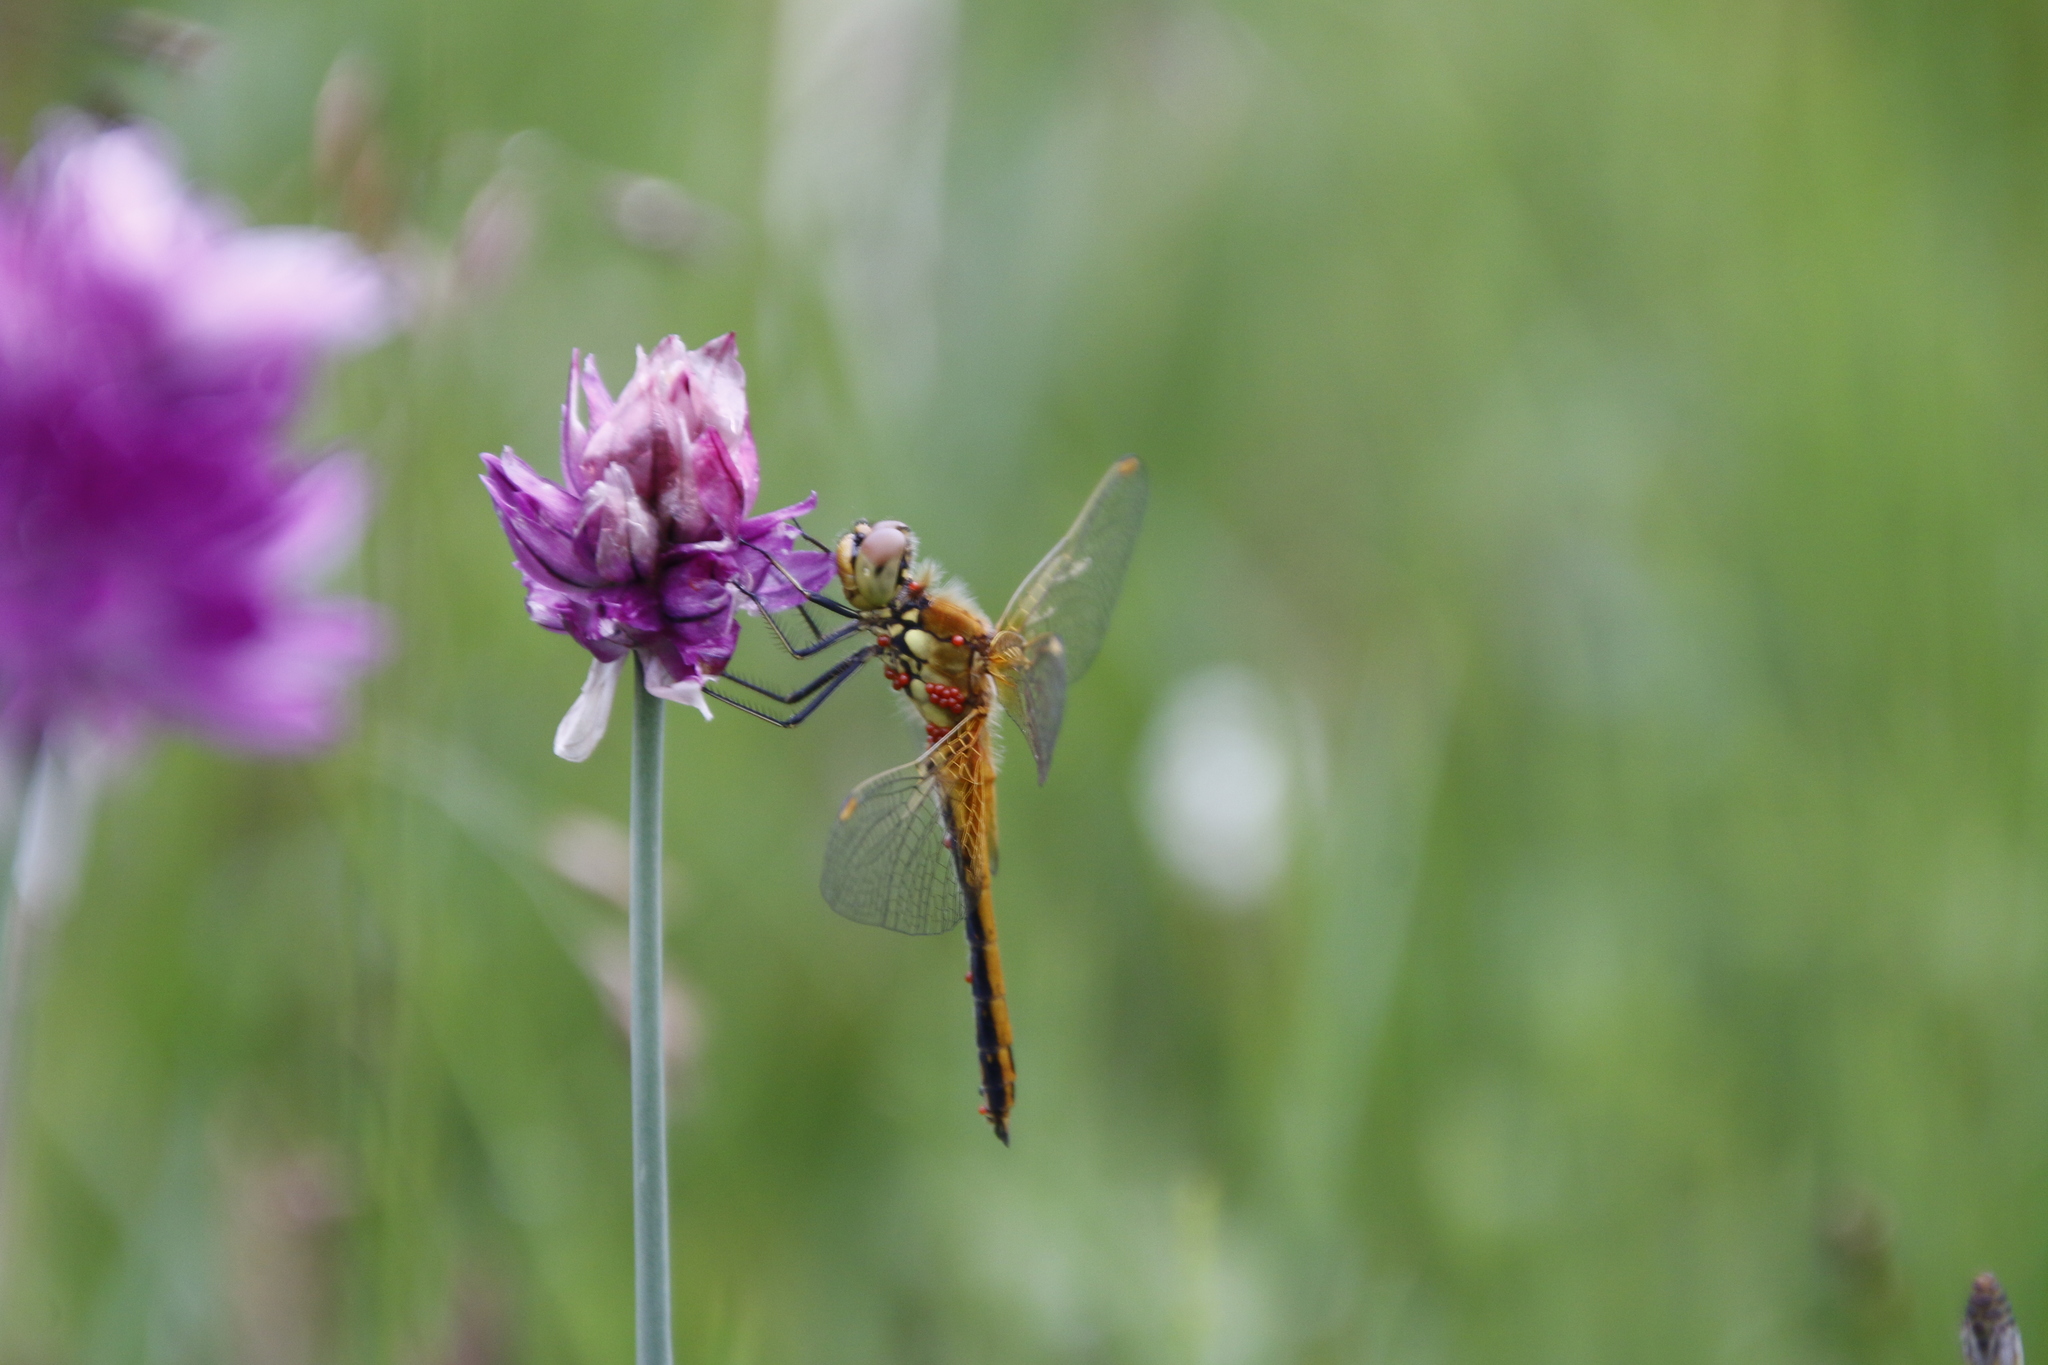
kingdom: Animalia
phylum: Arthropoda
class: Insecta
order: Odonata
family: Libellulidae
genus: Sympetrum
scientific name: Sympetrum flaveolum
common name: Yellow-winged darter
